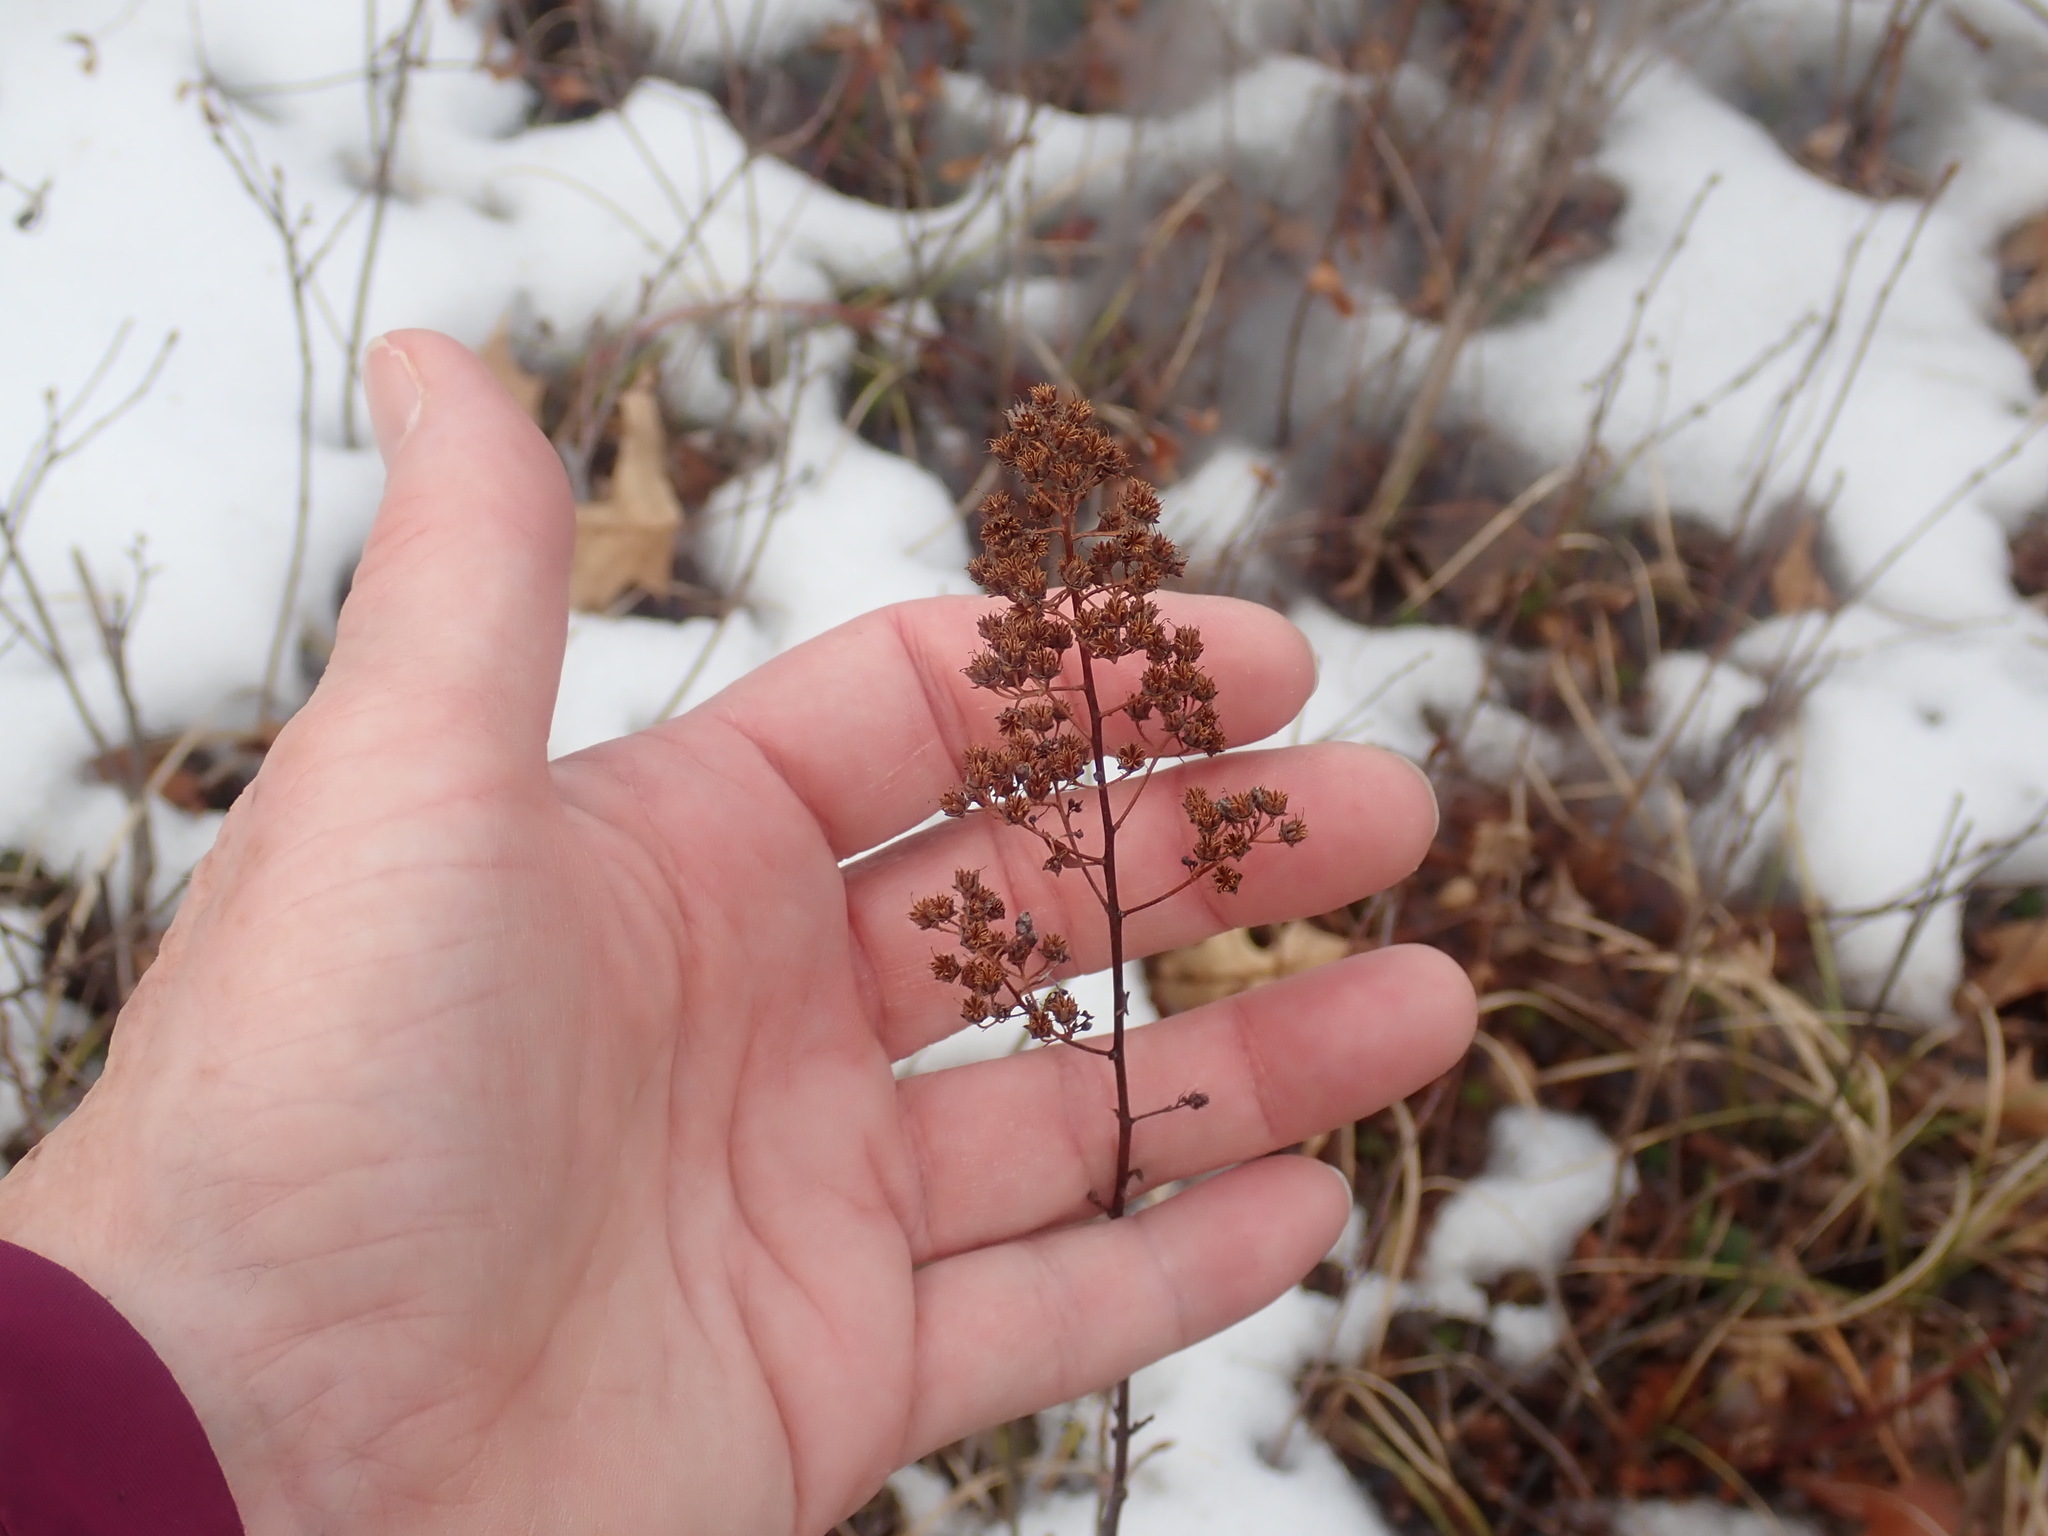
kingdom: Plantae
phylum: Tracheophyta
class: Magnoliopsida
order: Rosales
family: Rosaceae
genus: Spiraea
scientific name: Spiraea alba
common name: Pale bridewort
